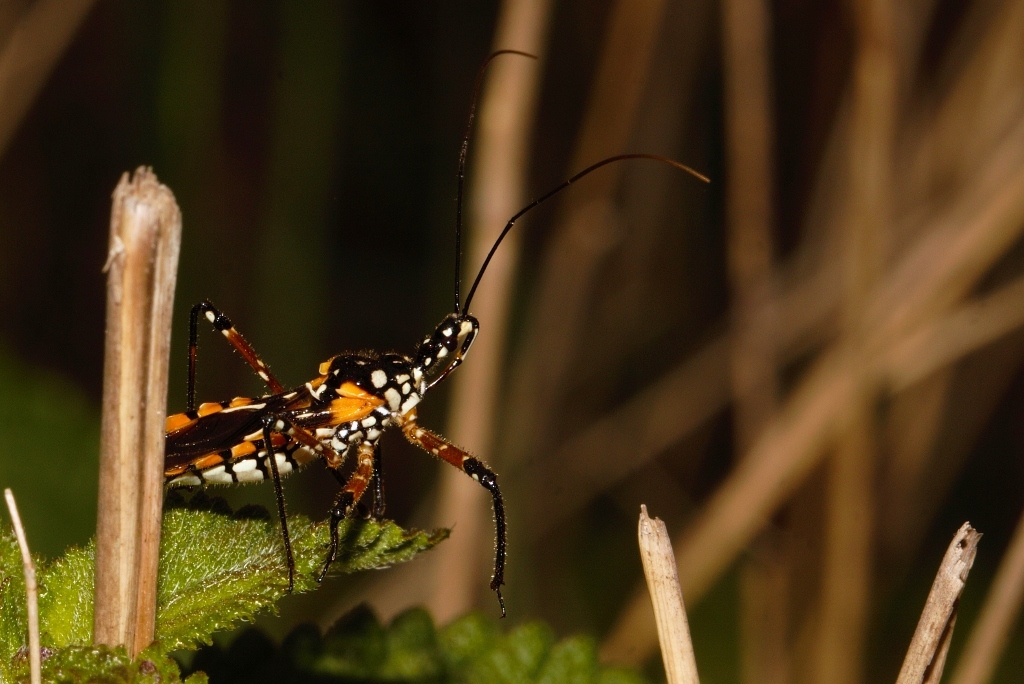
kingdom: Animalia
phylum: Arthropoda
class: Insecta
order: Hemiptera
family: Reduviidae
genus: Cosmolestes
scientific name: Cosmolestes pictus
